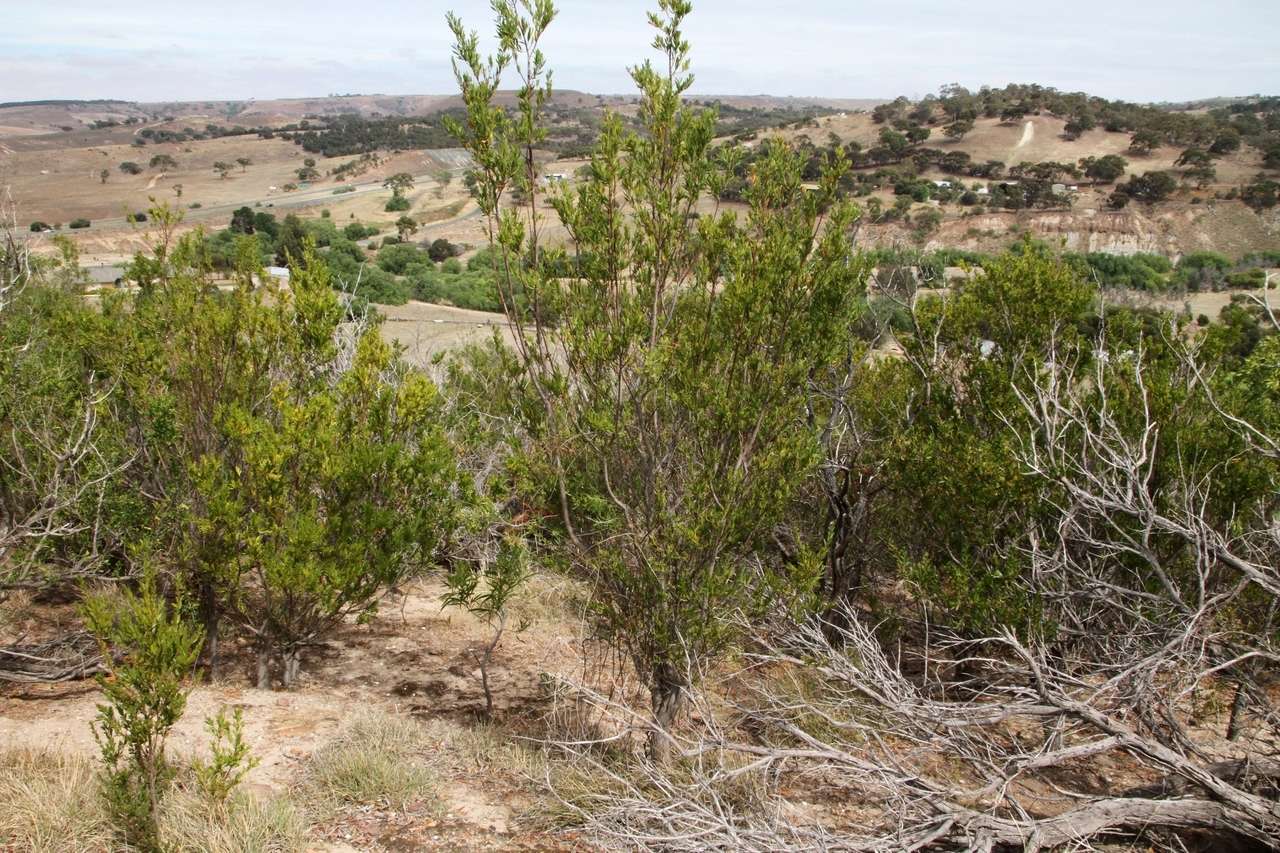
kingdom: Plantae
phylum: Tracheophyta
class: Magnoliopsida
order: Fabales
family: Fabaceae
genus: Acacia
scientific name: Acacia rostriformis
